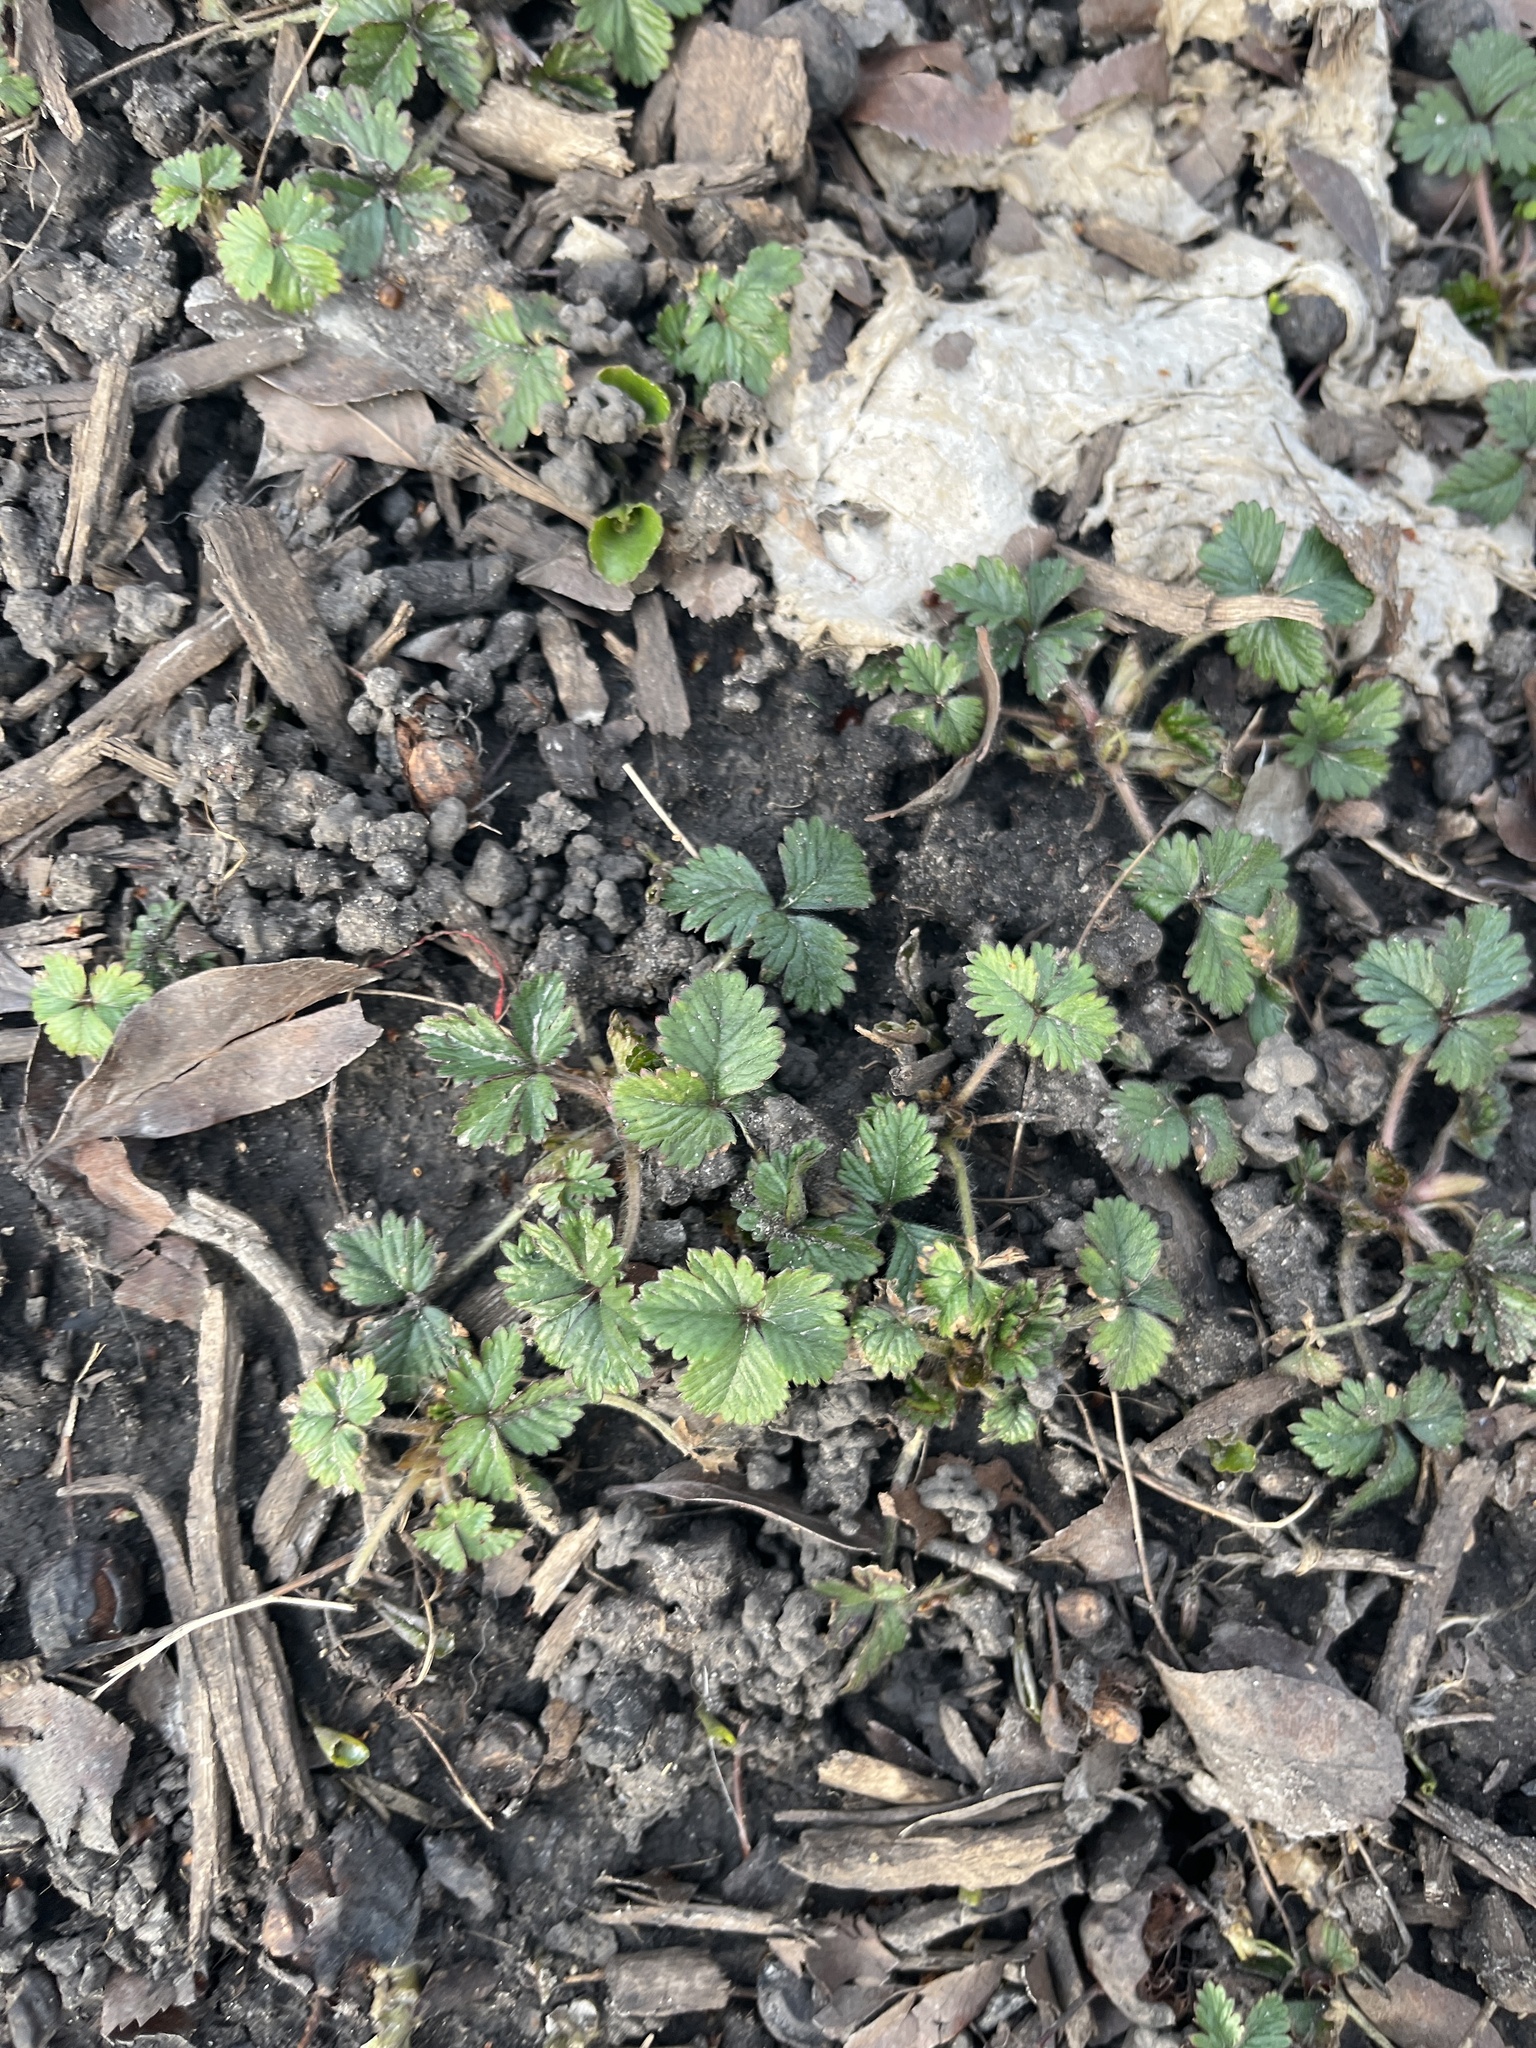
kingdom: Plantae
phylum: Tracheophyta
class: Magnoliopsida
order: Rosales
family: Rosaceae
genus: Potentilla
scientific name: Potentilla indica
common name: Yellow-flowered strawberry
